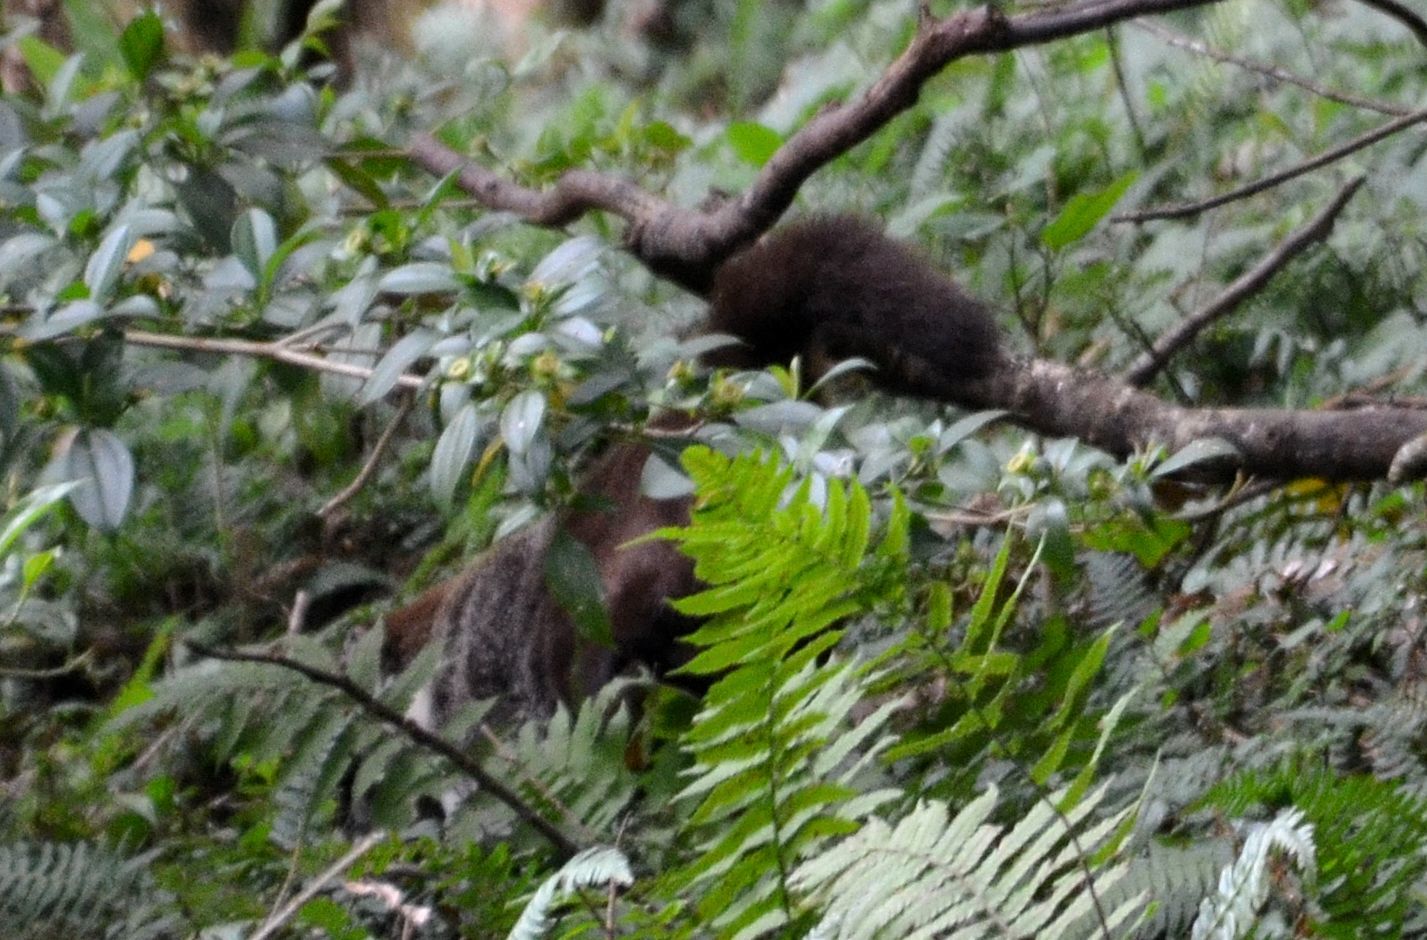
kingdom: Animalia
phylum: Chordata
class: Mammalia
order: Carnivora
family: Procyonidae
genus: Nasua
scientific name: Nasua narica
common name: White-nosed coati
